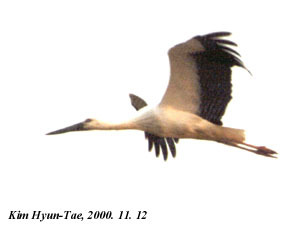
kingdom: Animalia
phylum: Chordata
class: Aves
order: Ciconiiformes
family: Ciconiidae
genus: Ciconia
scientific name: Ciconia boyciana
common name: Oriental stork
